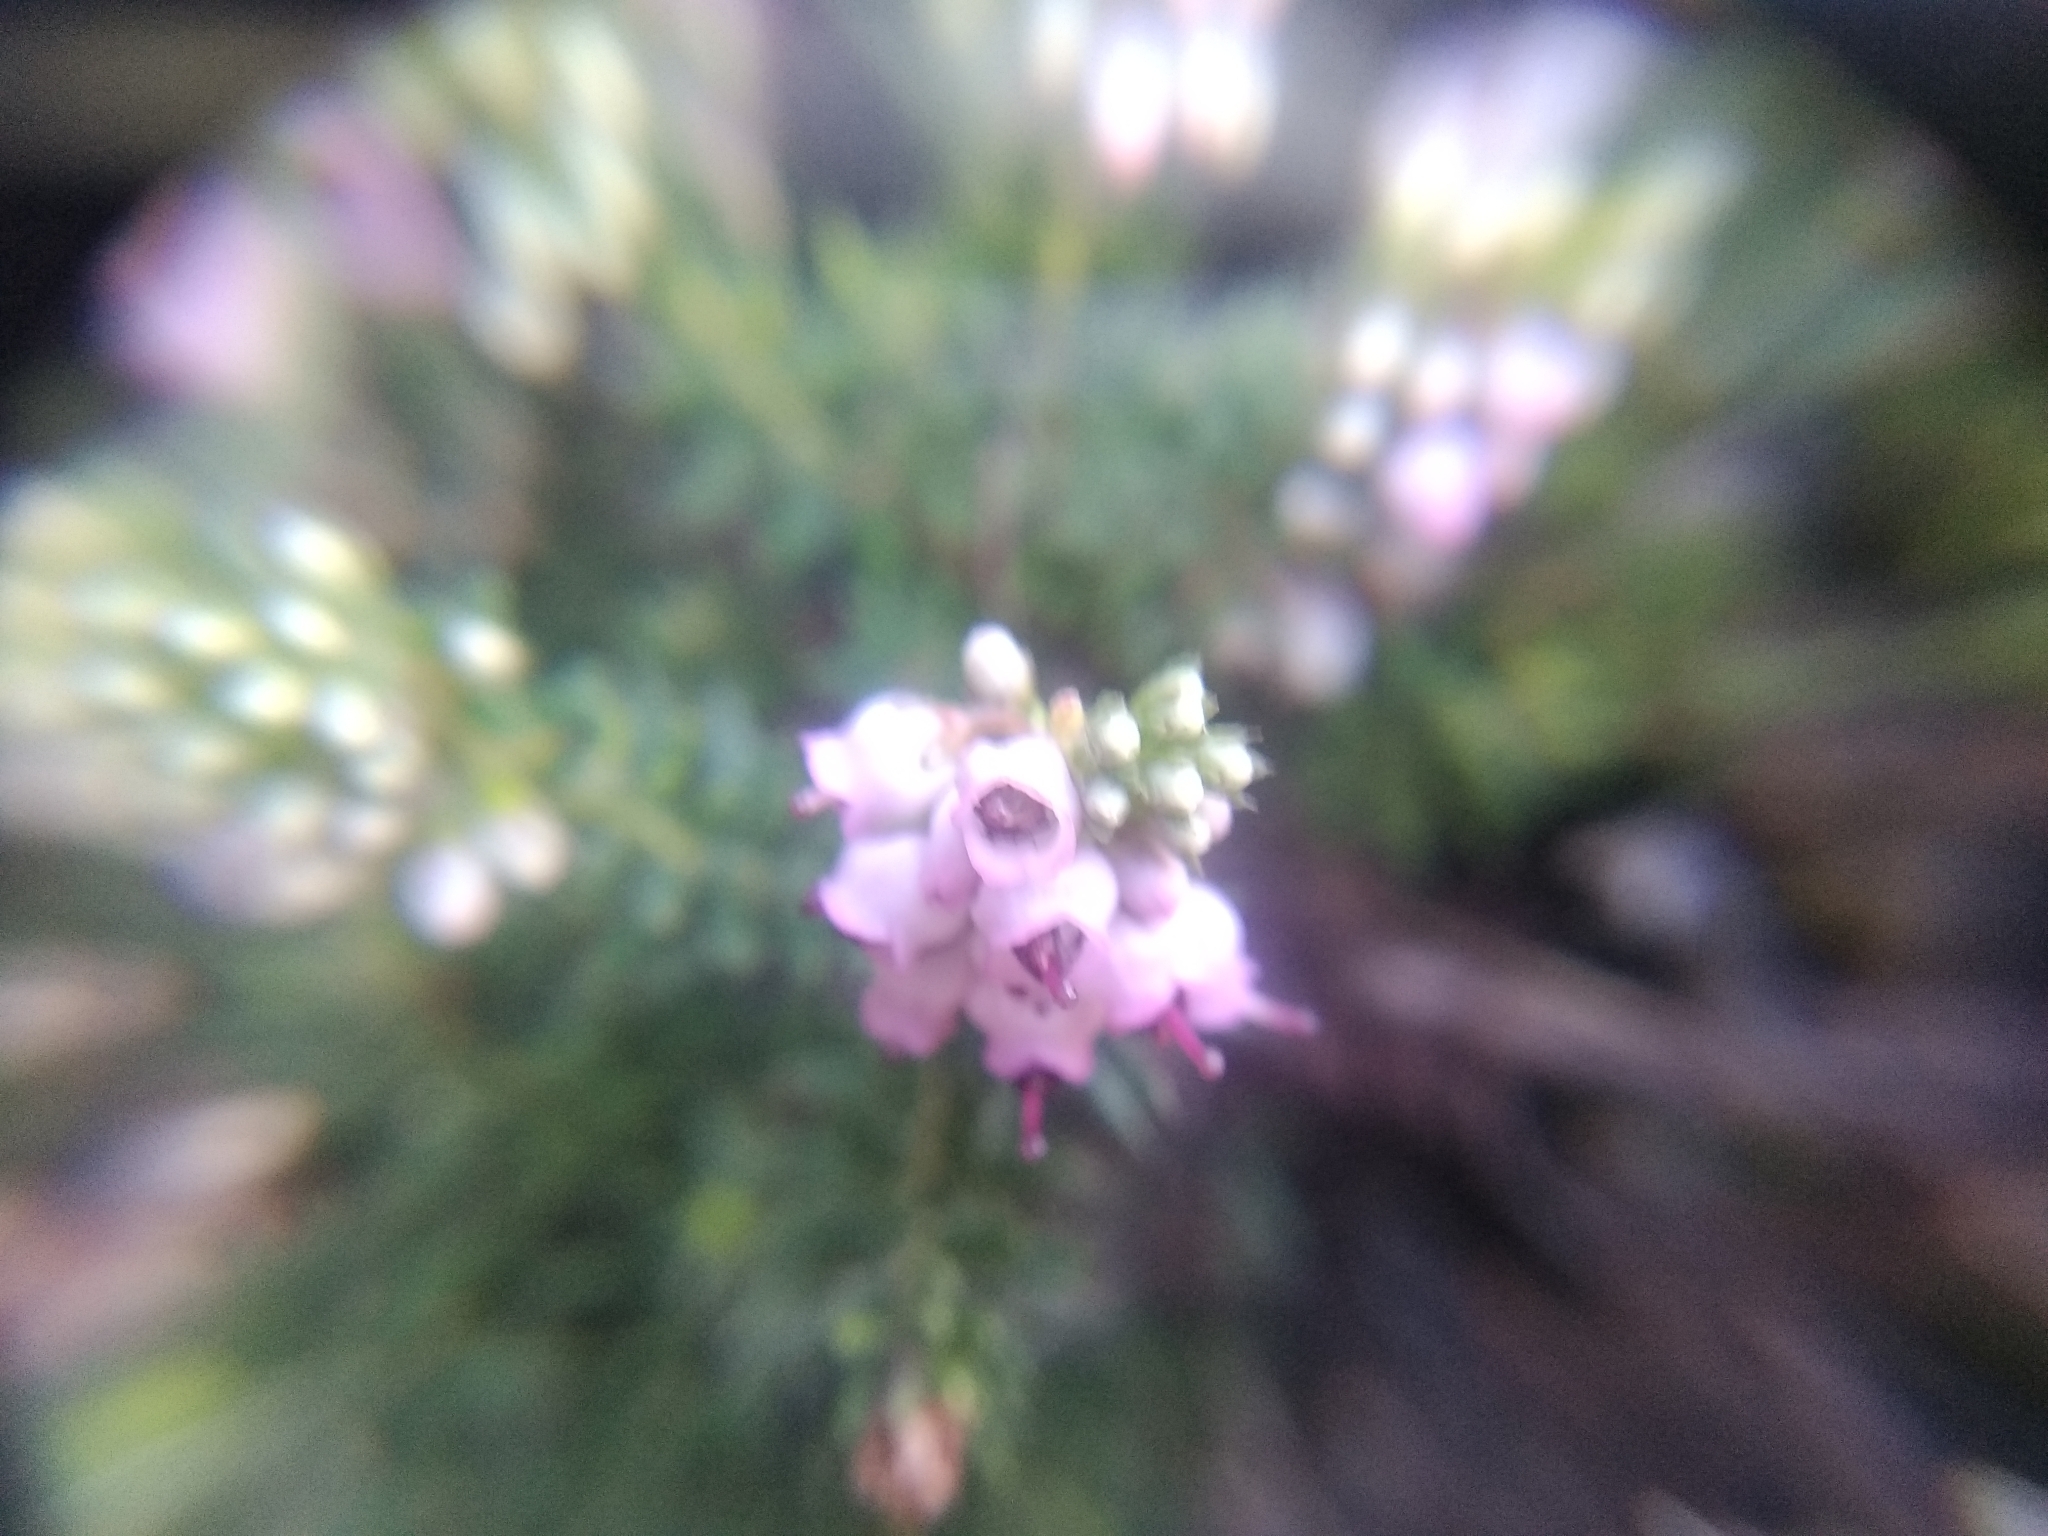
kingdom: Plantae
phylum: Tracheophyta
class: Magnoliopsida
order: Ericales
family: Ericaceae
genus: Erica
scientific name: Erica strigosa
